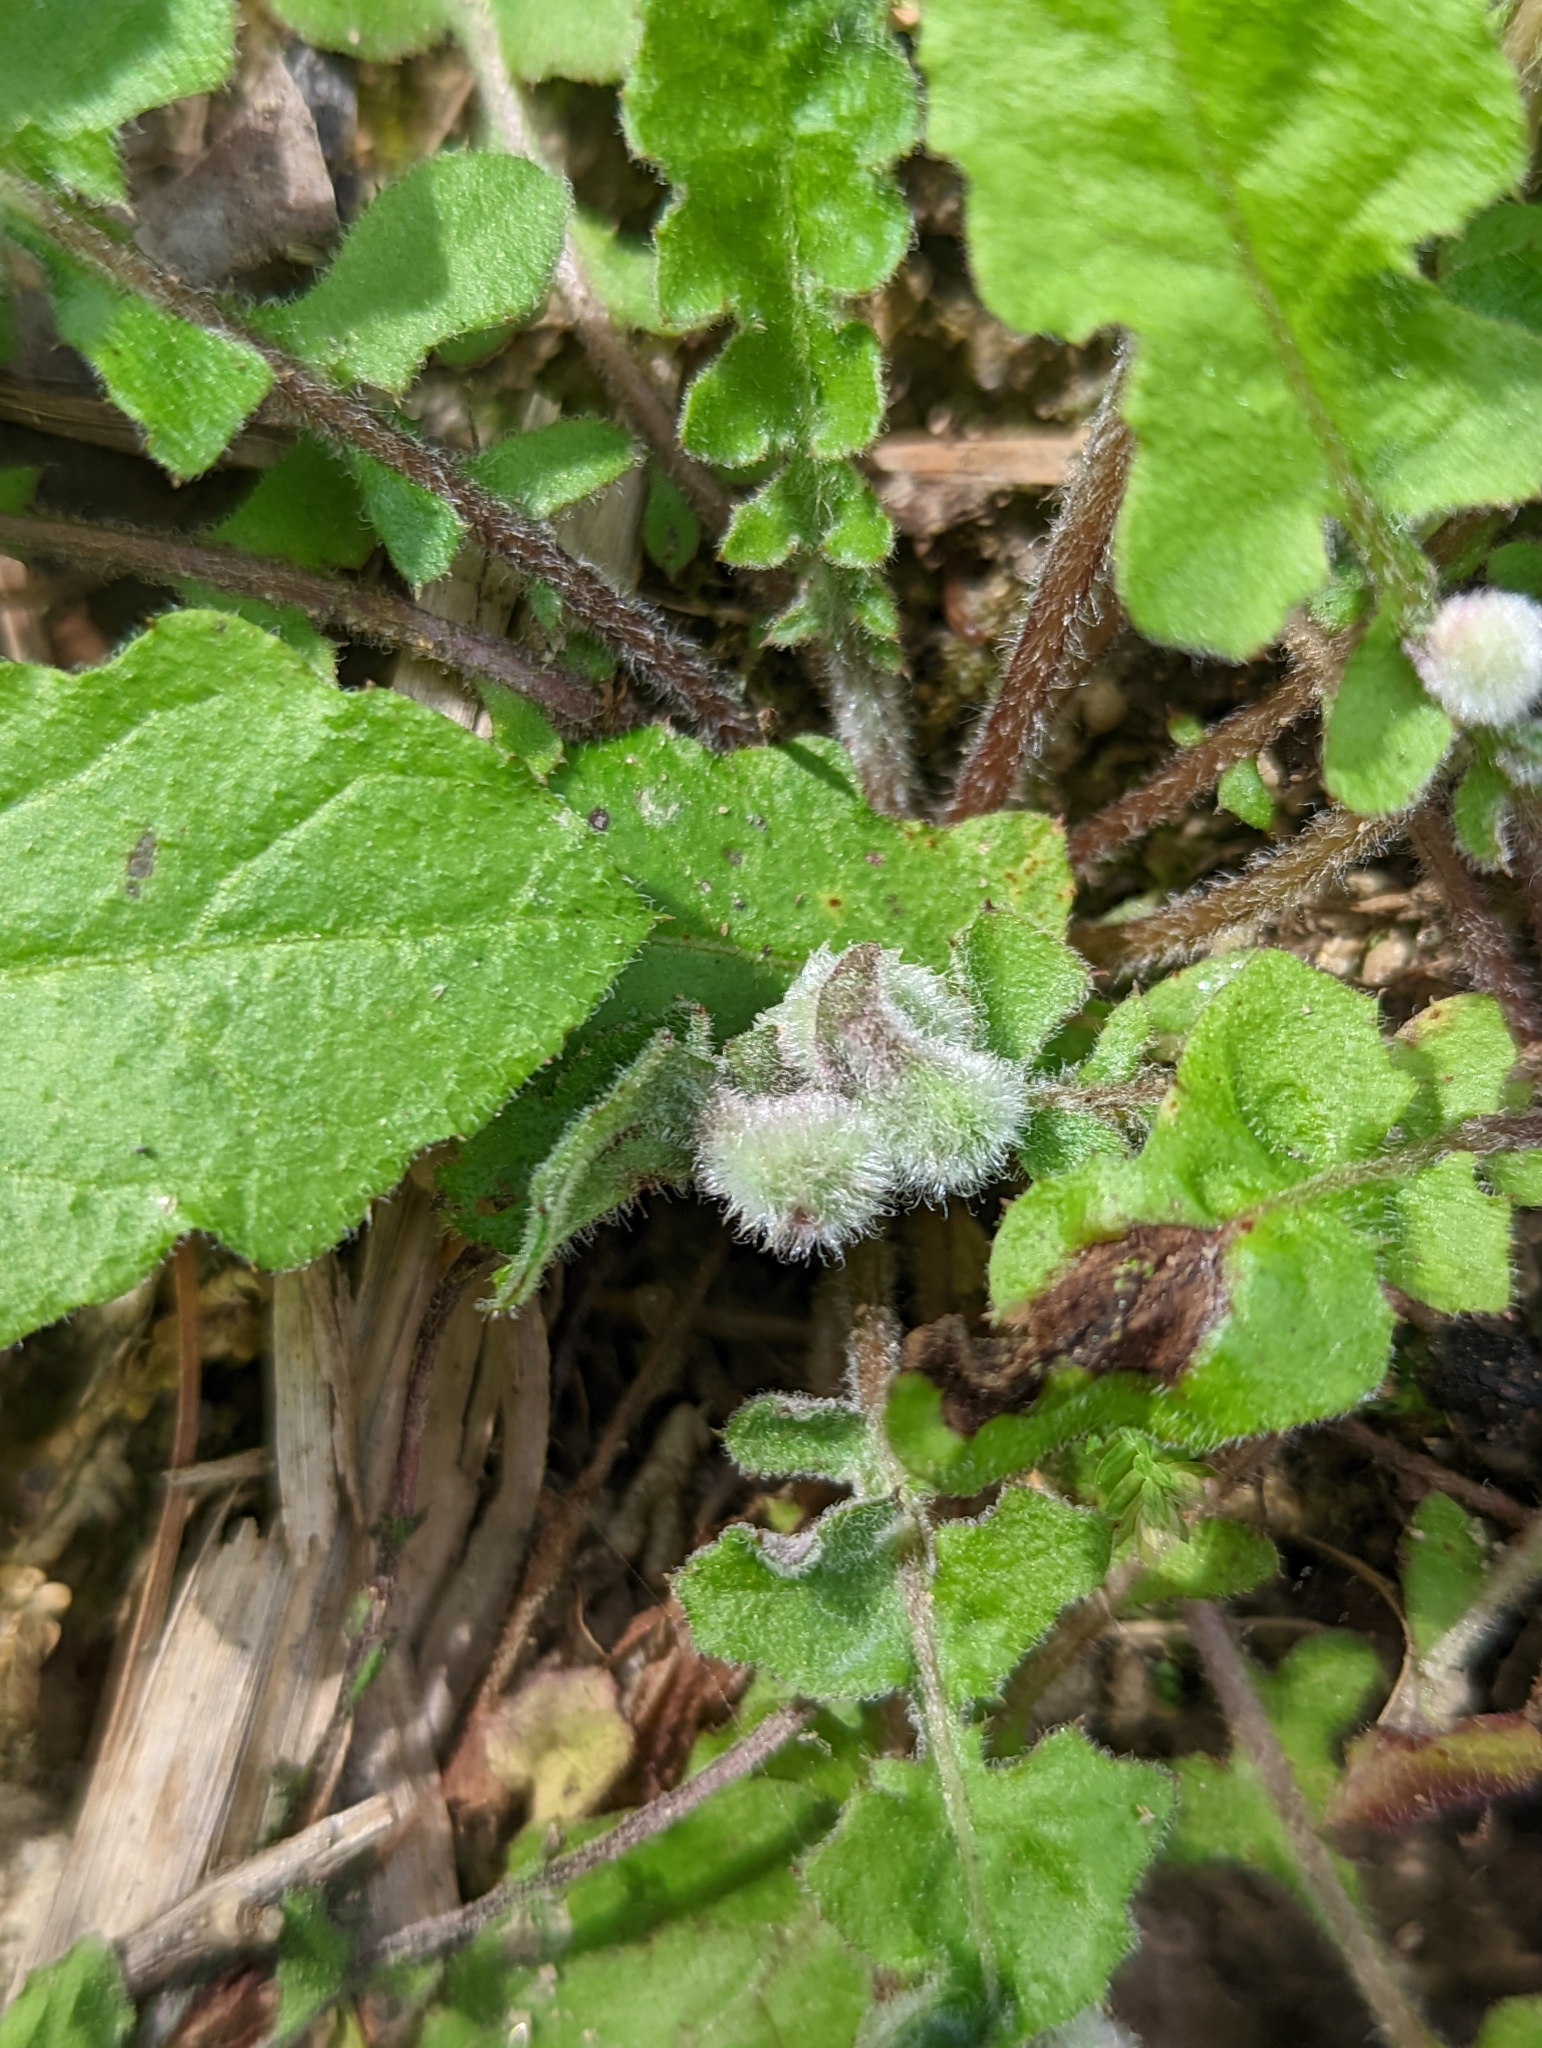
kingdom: Plantae
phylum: Tracheophyta
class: Magnoliopsida
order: Asterales
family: Asteraceae
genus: Youngia
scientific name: Youngia japonica
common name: Oriental false hawksbeard
